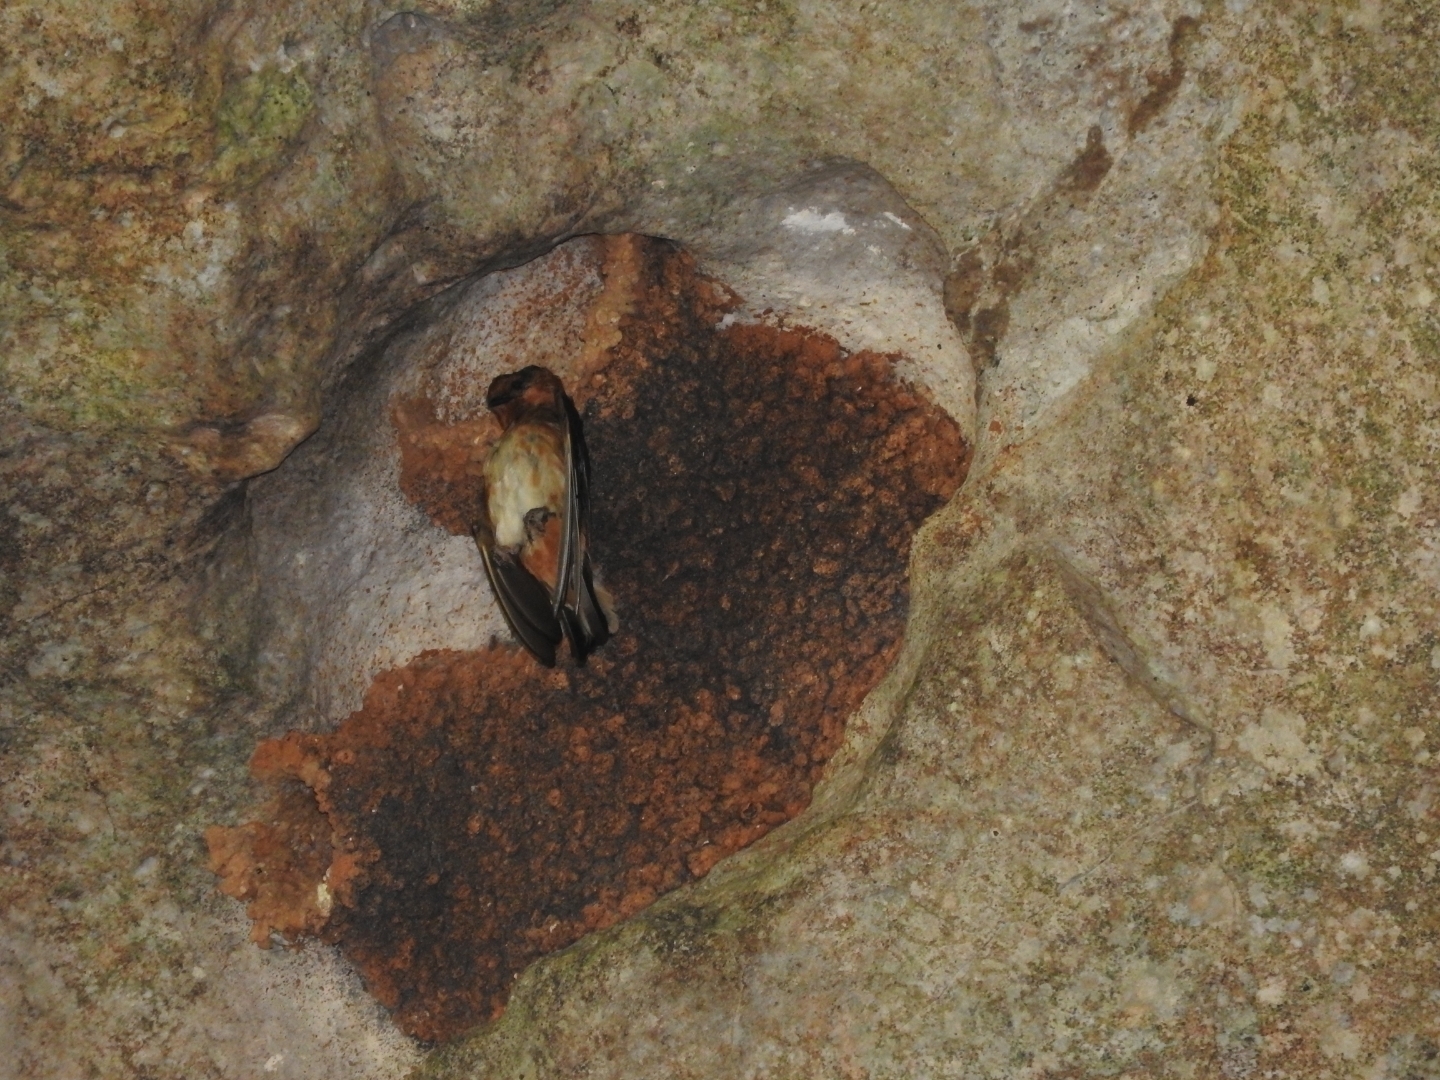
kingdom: Animalia
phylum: Chordata
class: Aves
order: Passeriformes
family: Hirundinidae
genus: Petrochelidon
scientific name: Petrochelidon fulva
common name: Cave swallow
